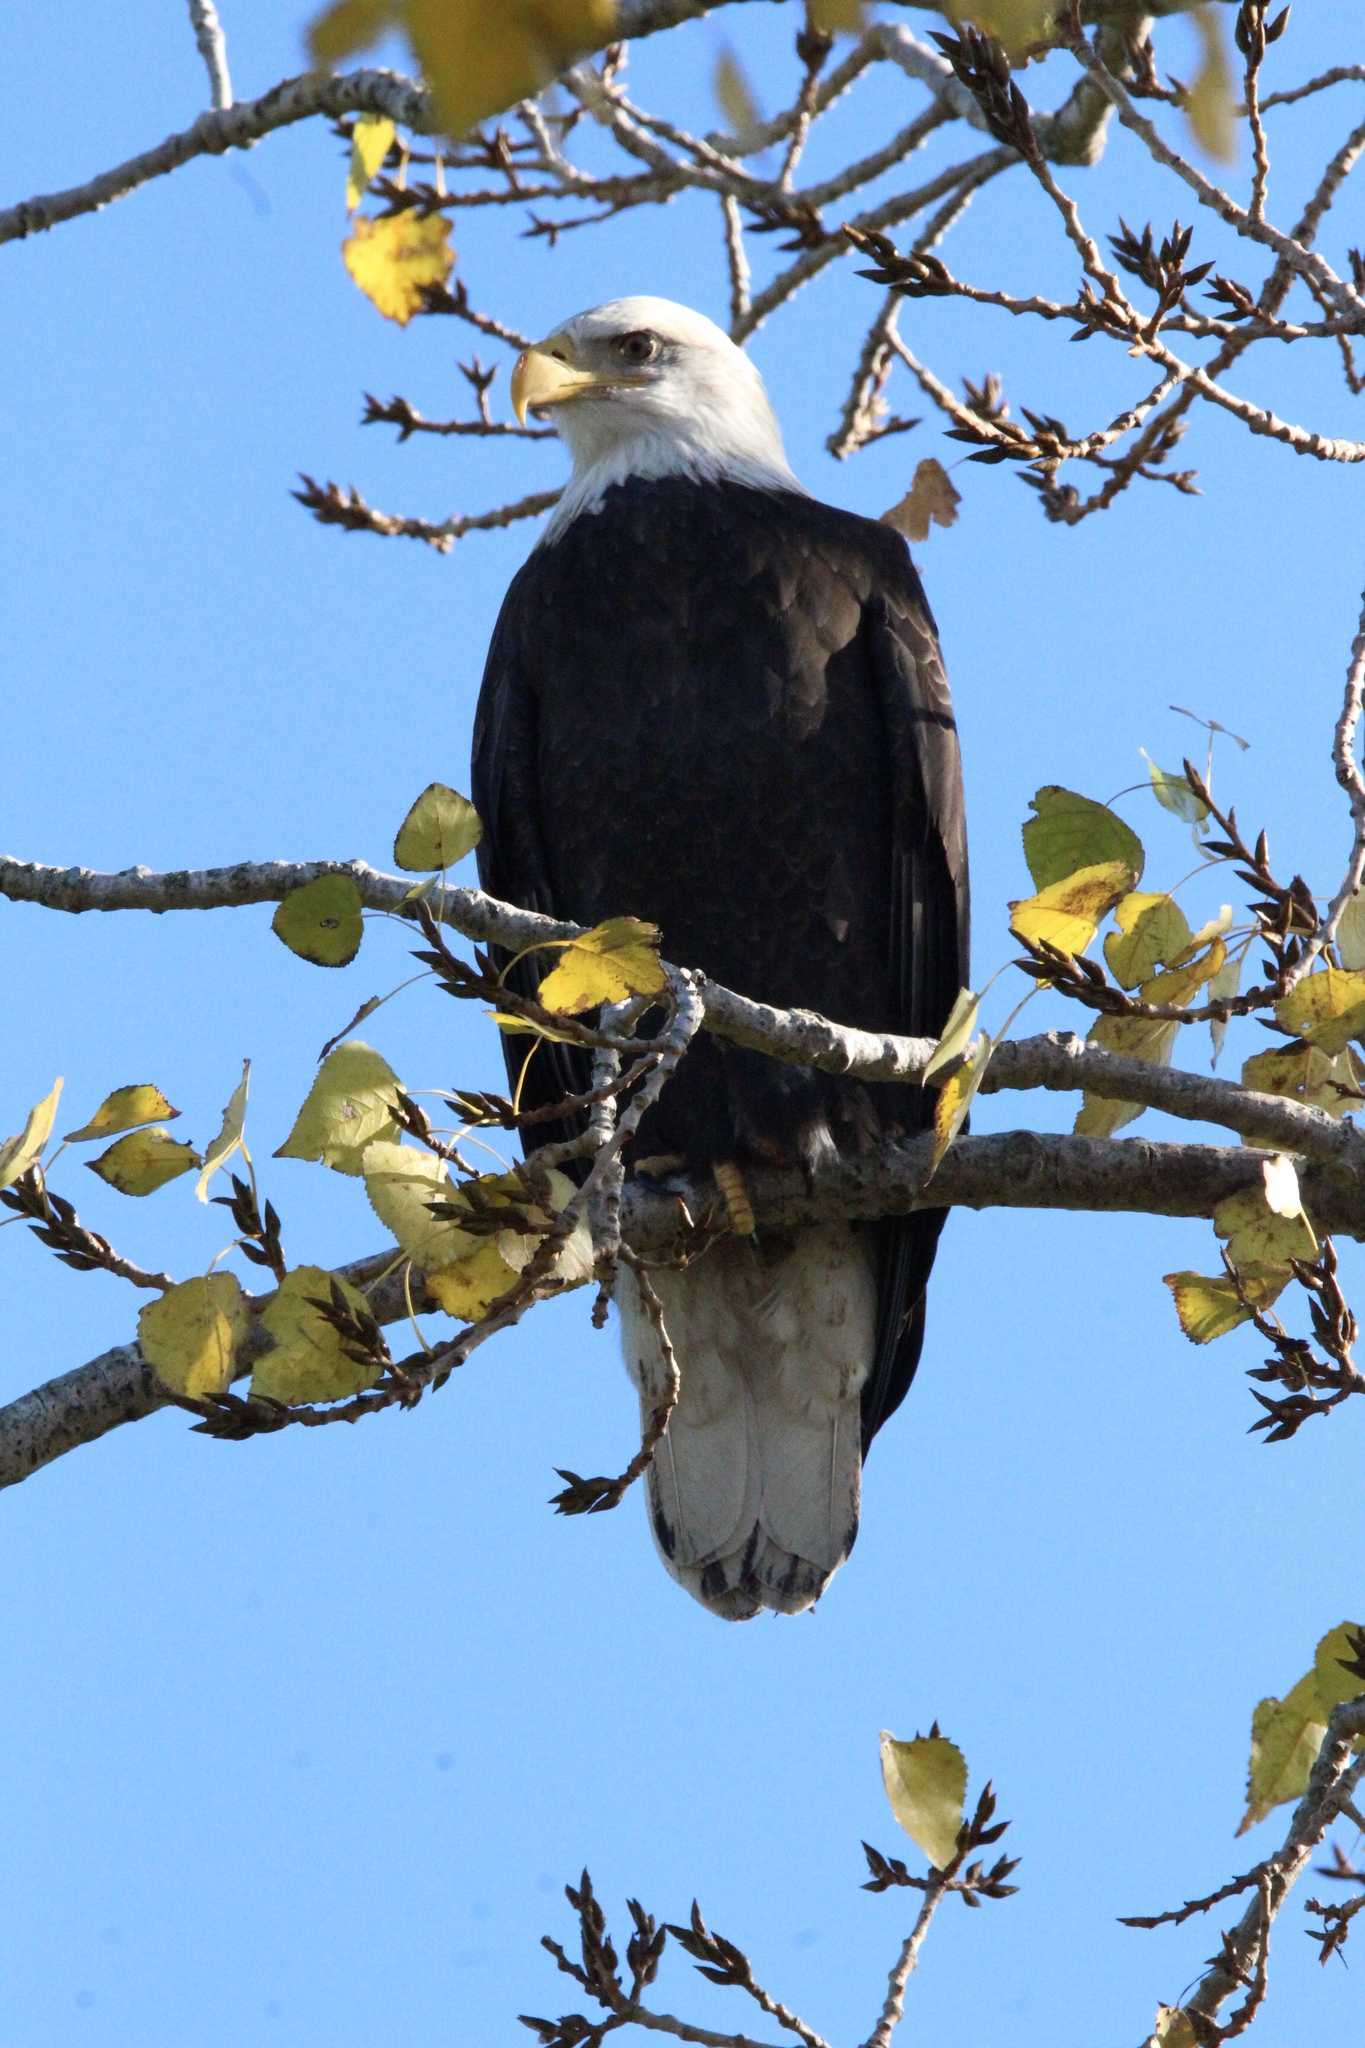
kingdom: Animalia
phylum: Chordata
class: Aves
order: Accipitriformes
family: Accipitridae
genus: Haliaeetus
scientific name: Haliaeetus leucocephalus
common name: Bald eagle
